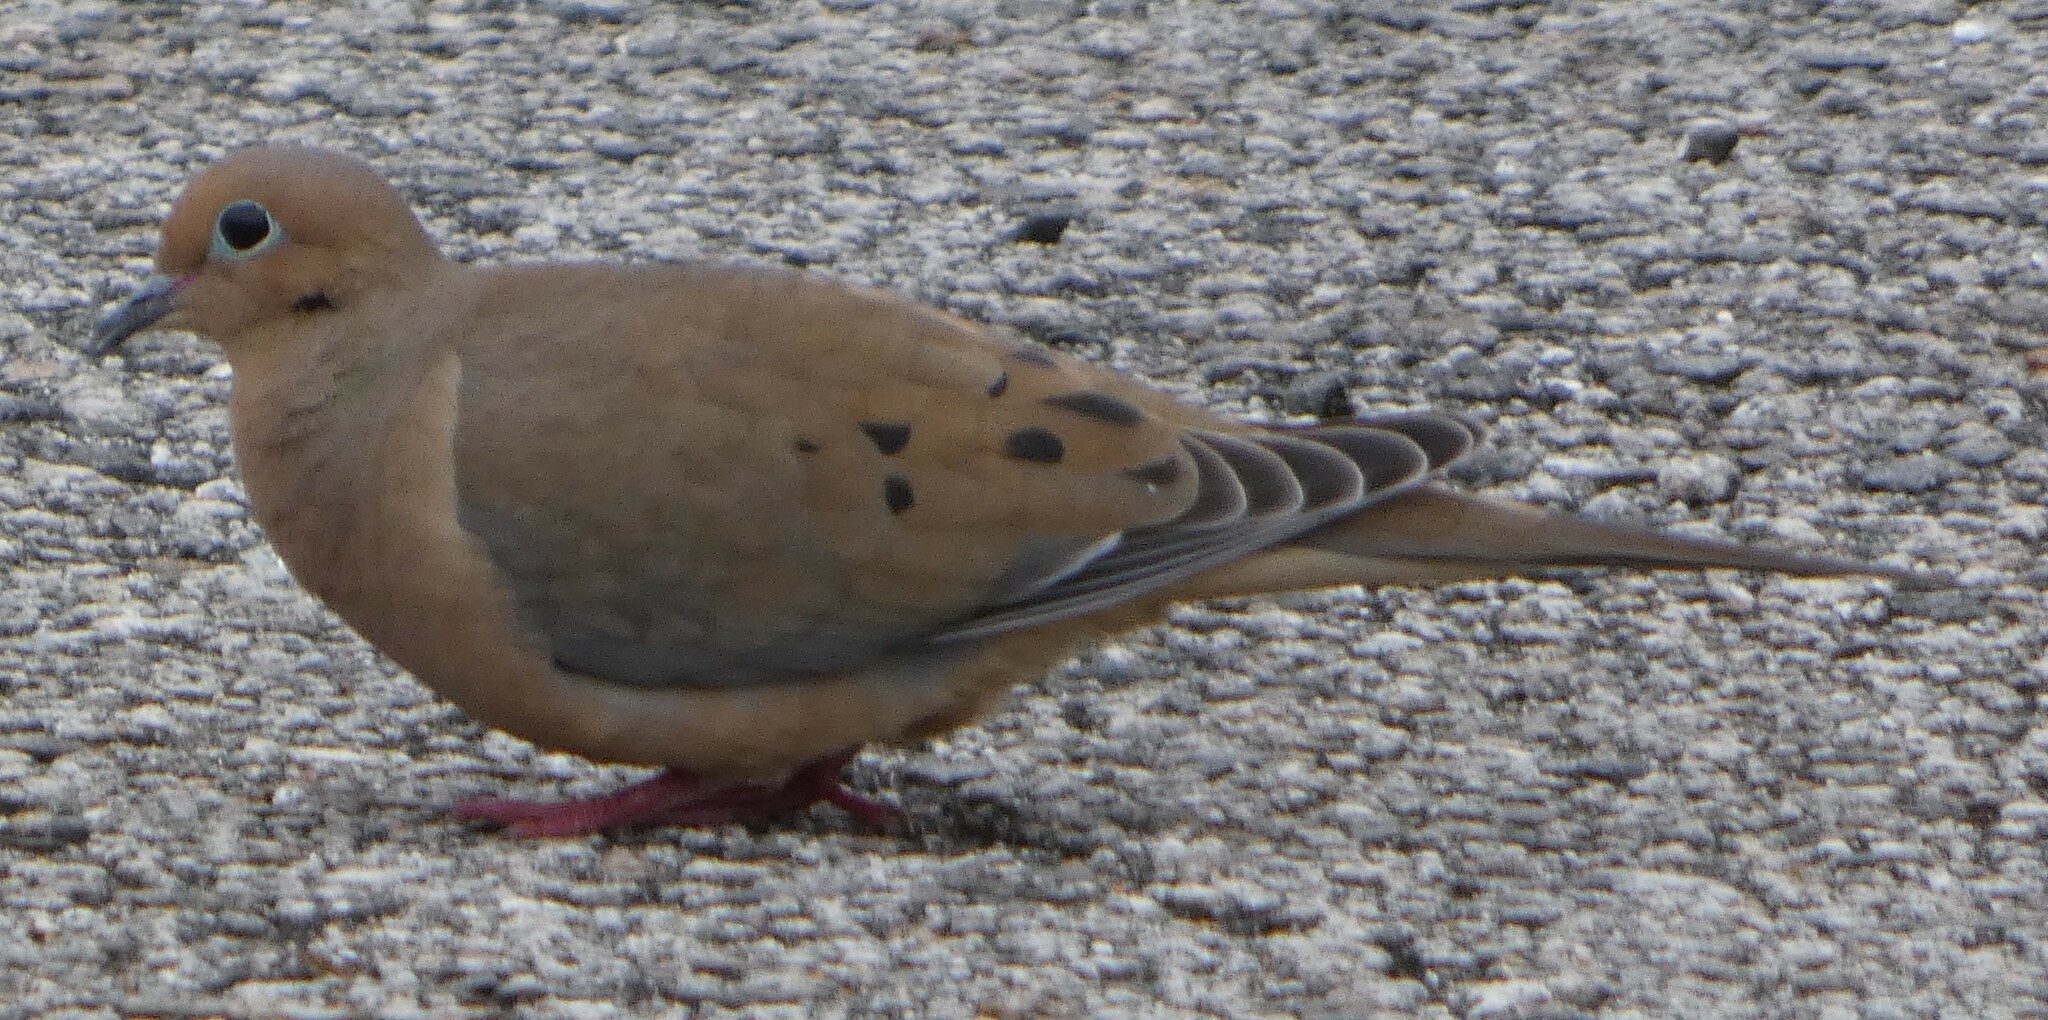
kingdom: Animalia
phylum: Chordata
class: Aves
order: Columbiformes
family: Columbidae
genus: Zenaida
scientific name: Zenaida macroura
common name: Mourning dove
